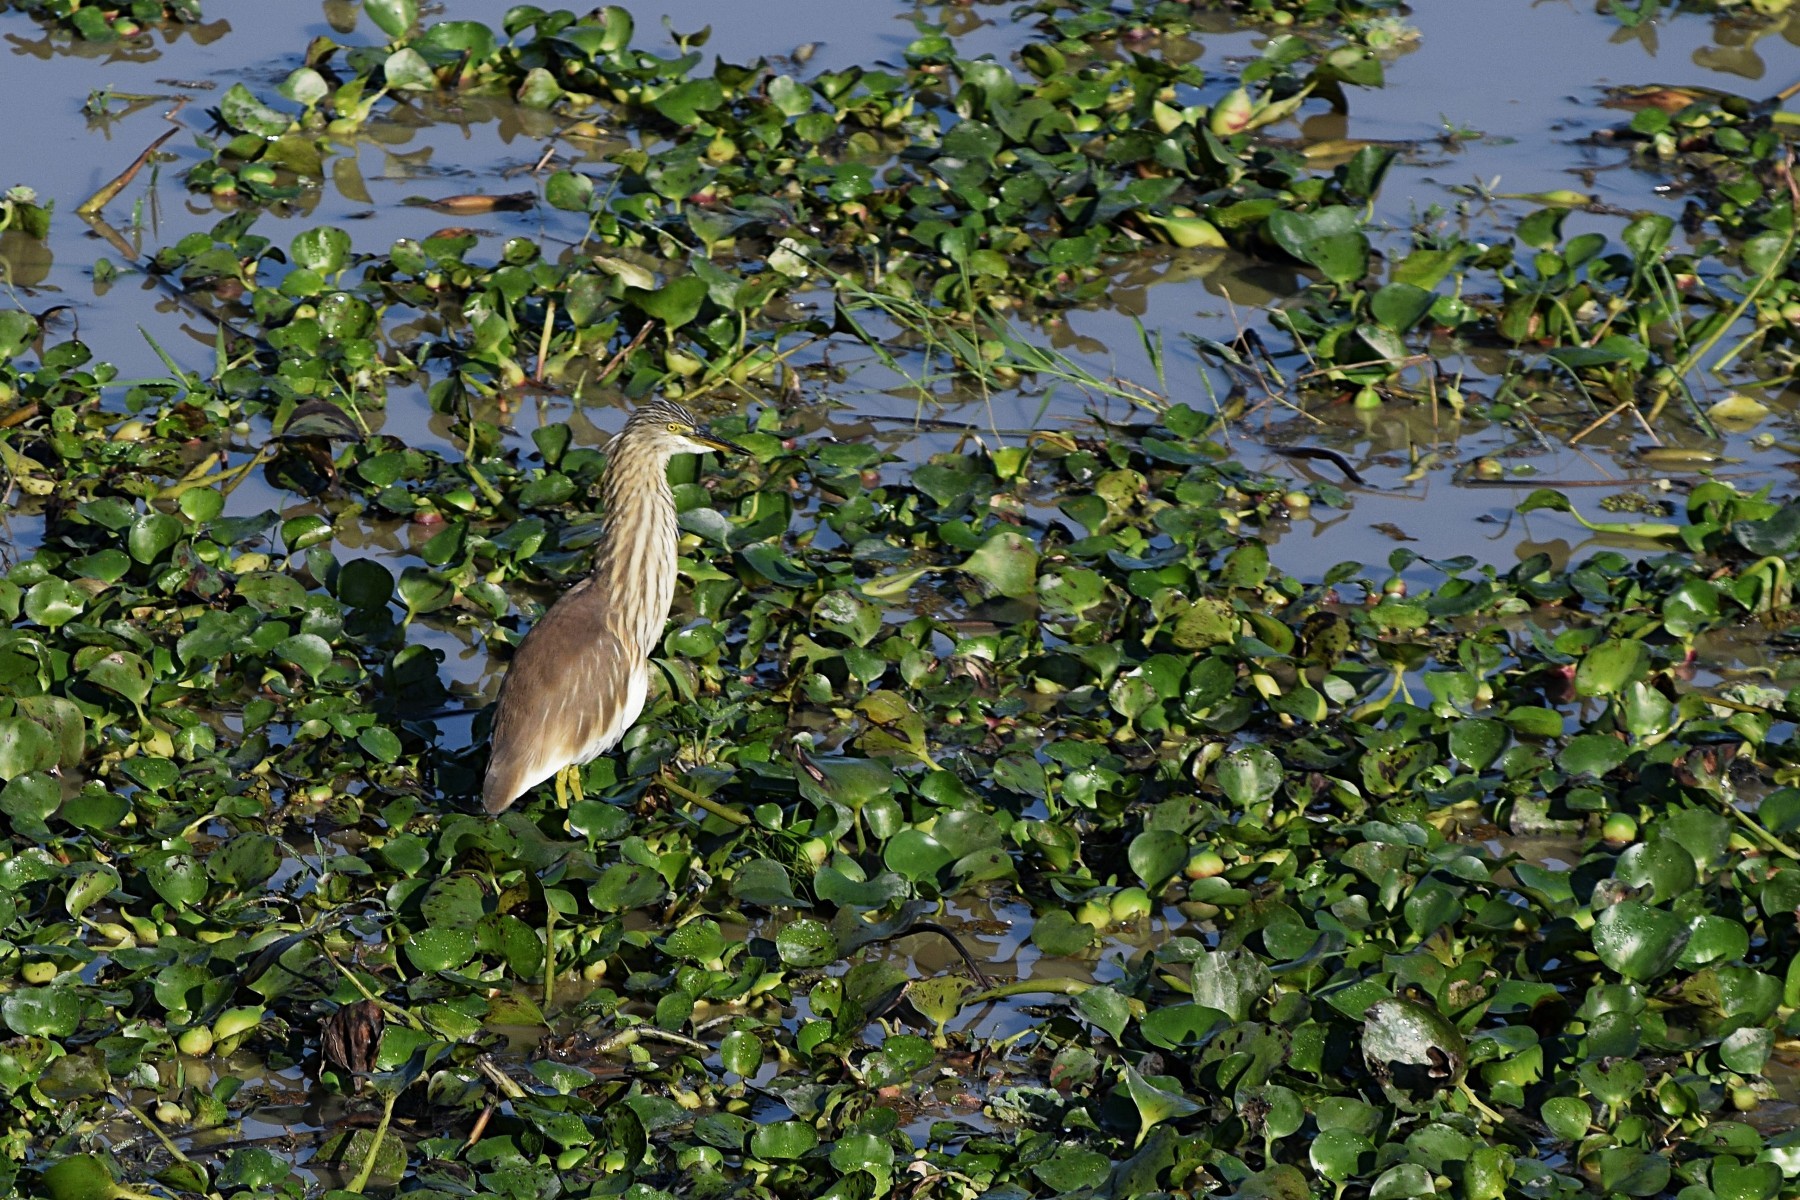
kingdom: Animalia
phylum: Chordata
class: Aves
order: Pelecaniformes
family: Ardeidae
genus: Ardeola
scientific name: Ardeola grayii
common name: Indian pond heron
